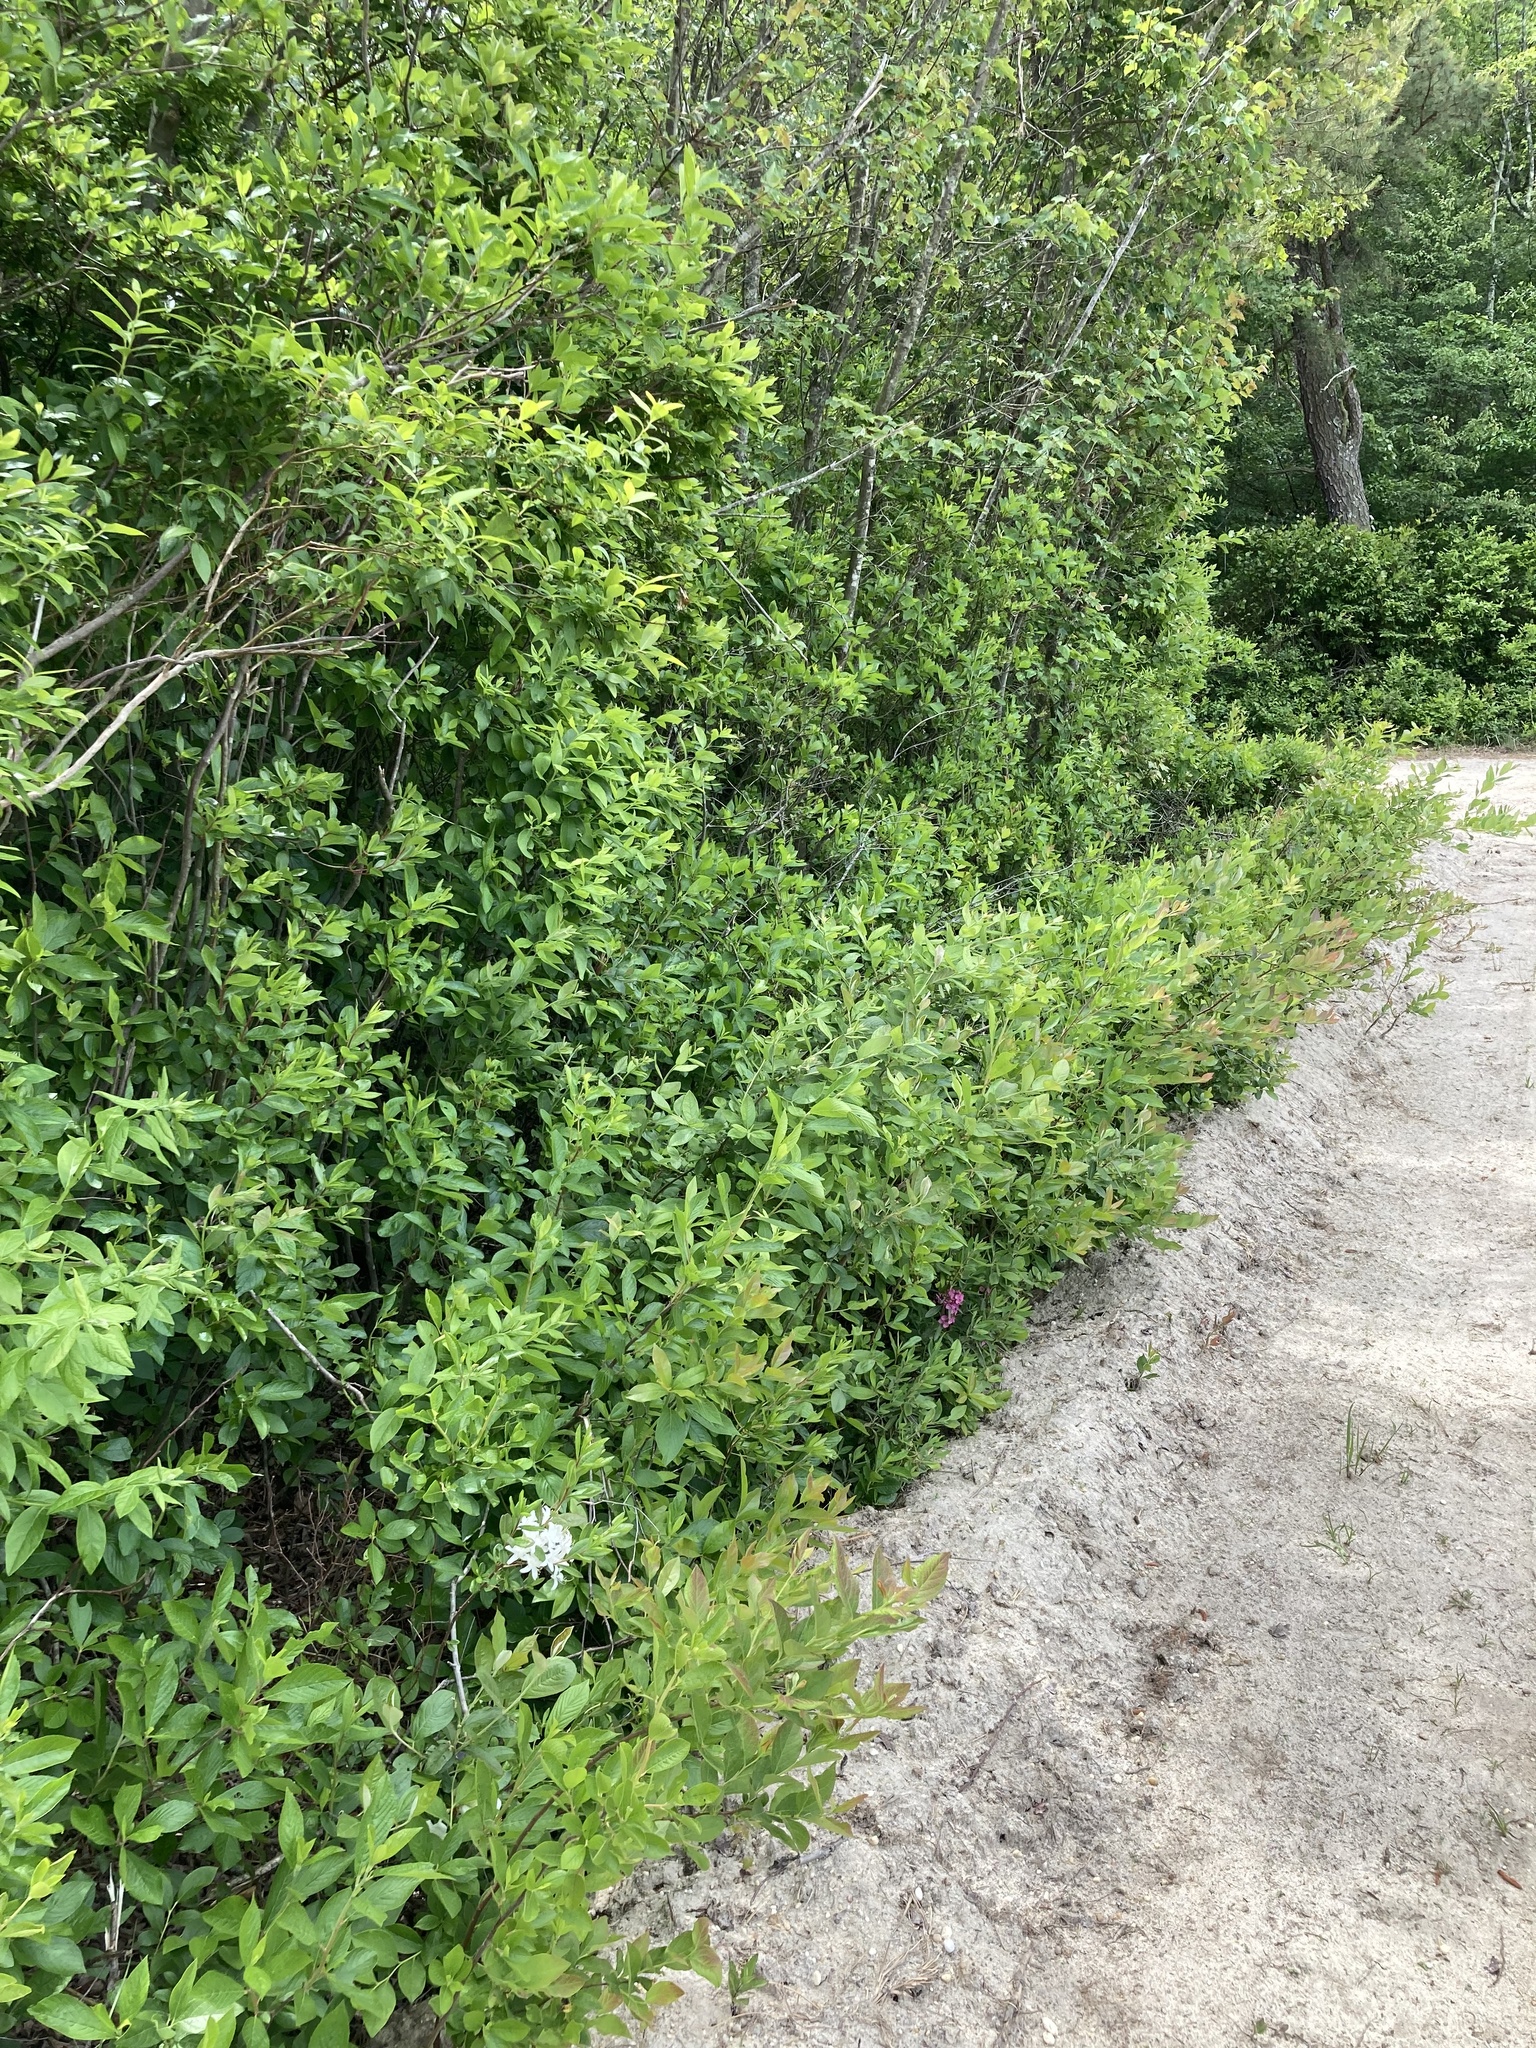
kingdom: Plantae
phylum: Tracheophyta
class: Magnoliopsida
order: Ericales
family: Ericaceae
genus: Rhododendron
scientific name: Rhododendron viscosum
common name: Clammy azalea
